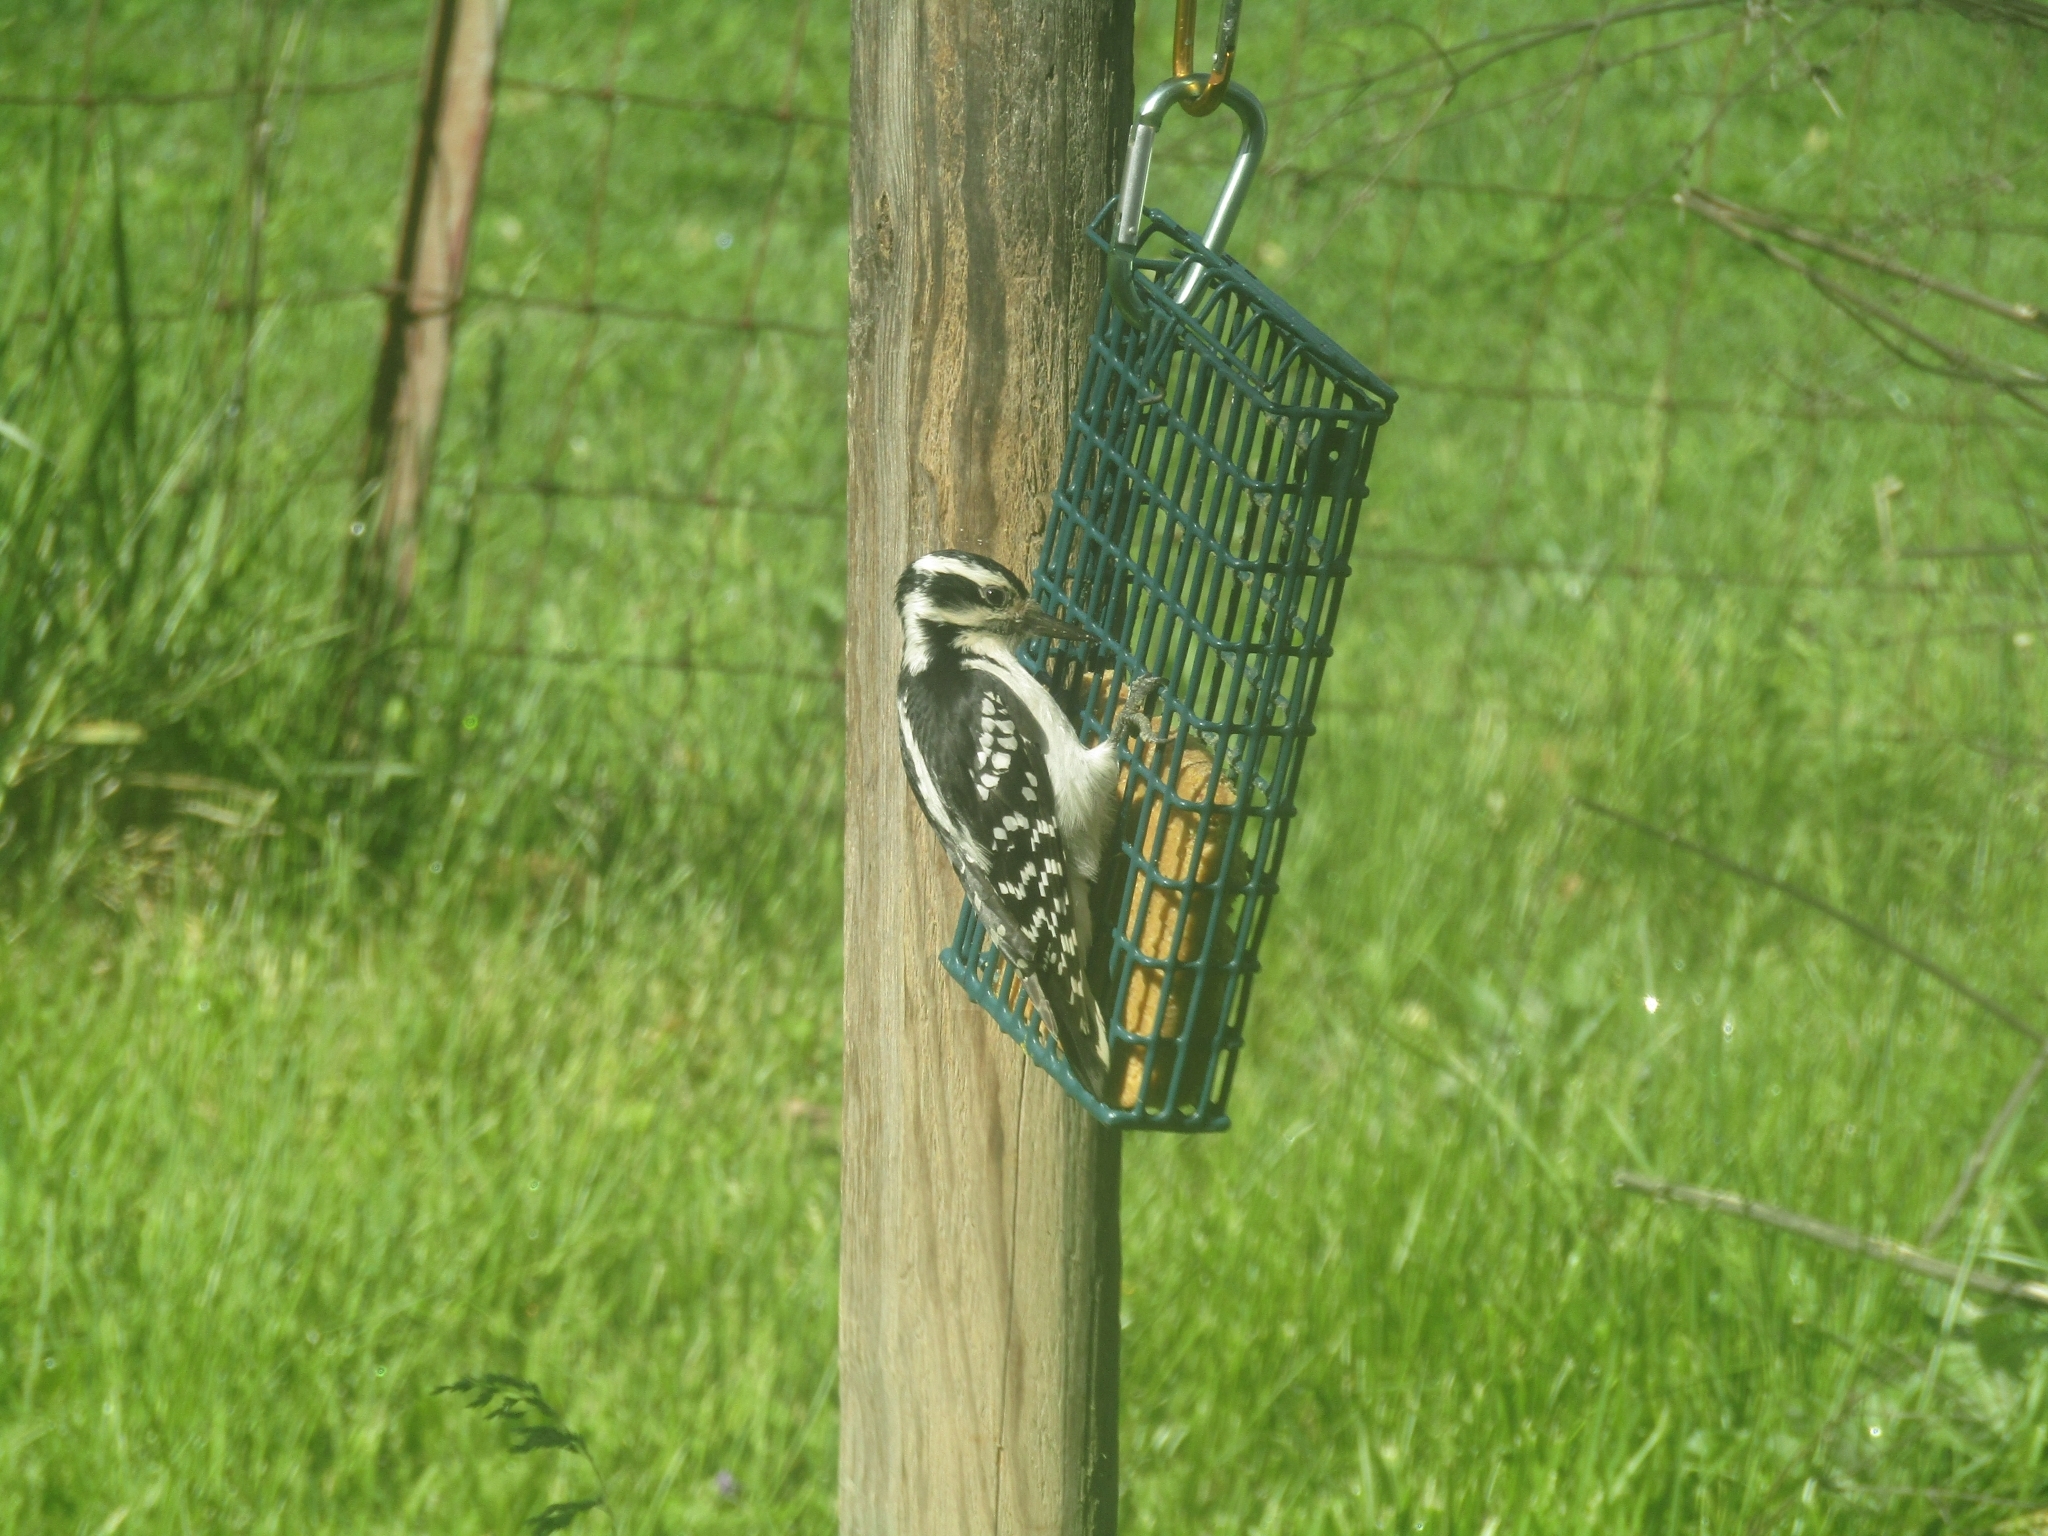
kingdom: Animalia
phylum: Chordata
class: Aves
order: Piciformes
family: Picidae
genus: Leuconotopicus
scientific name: Leuconotopicus villosus
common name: Hairy woodpecker
